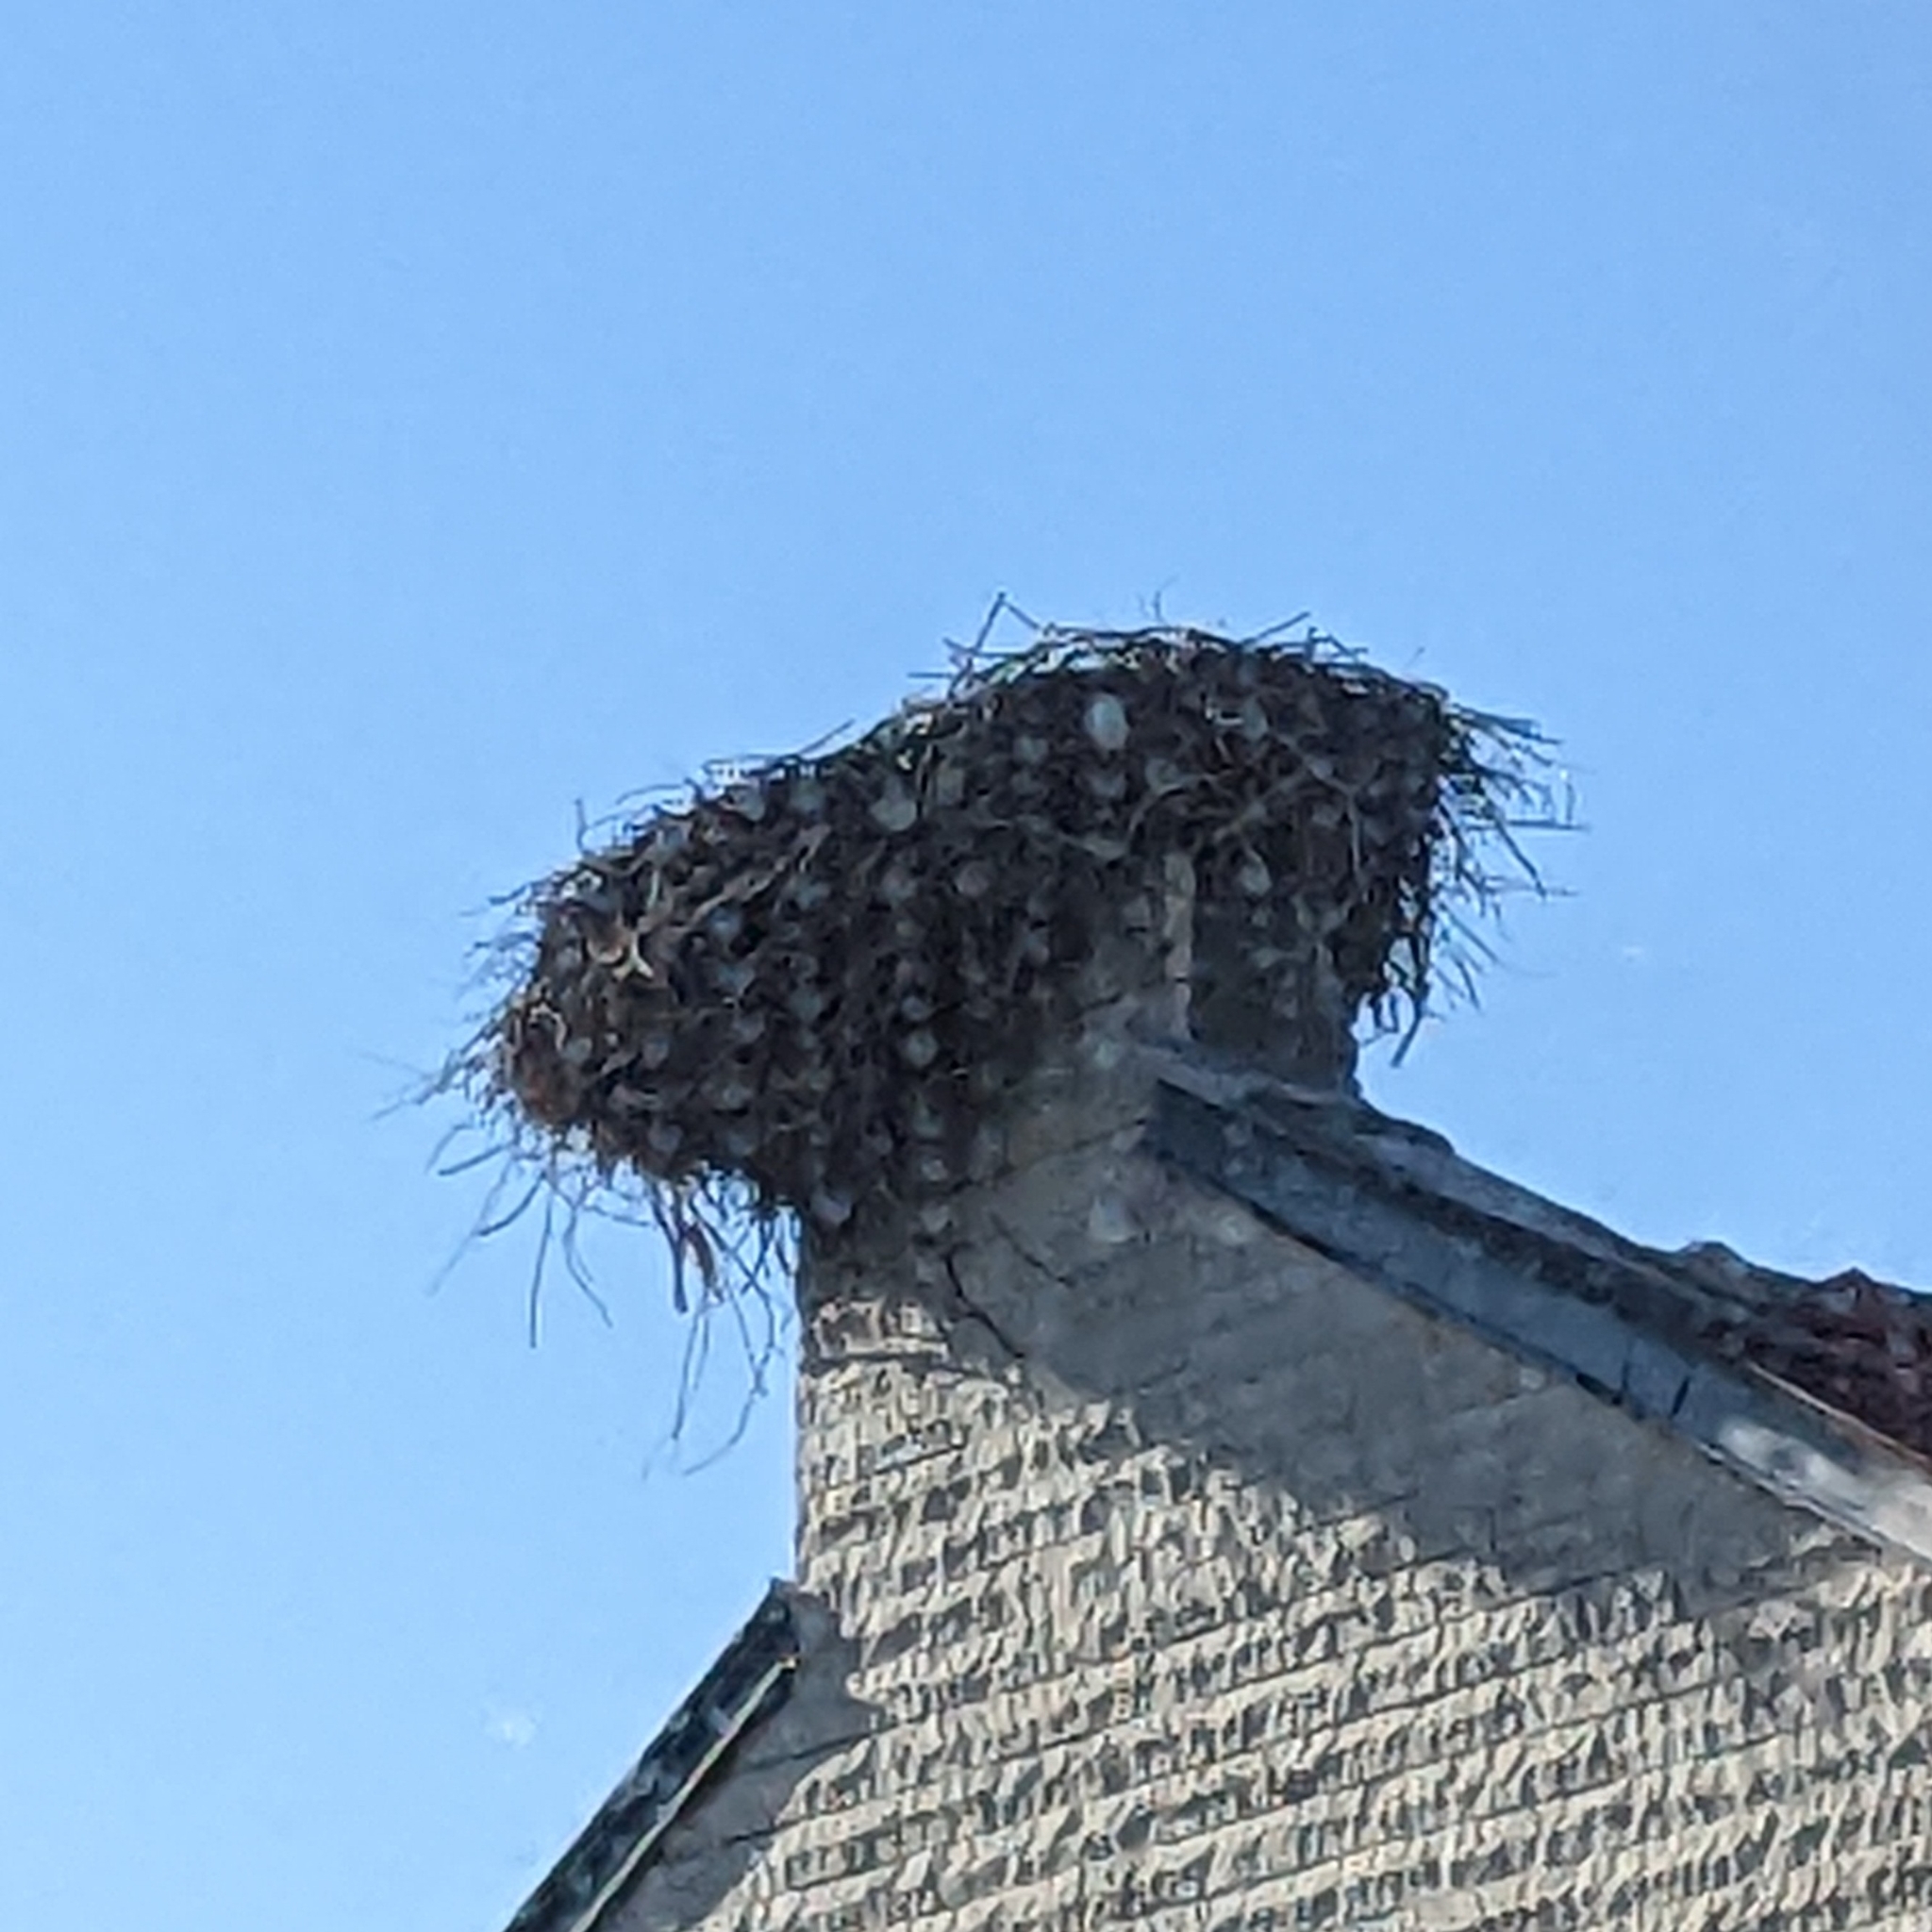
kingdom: Animalia
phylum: Chordata
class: Aves
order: Ciconiiformes
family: Ciconiidae
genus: Ciconia
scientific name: Ciconia ciconia
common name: White stork
